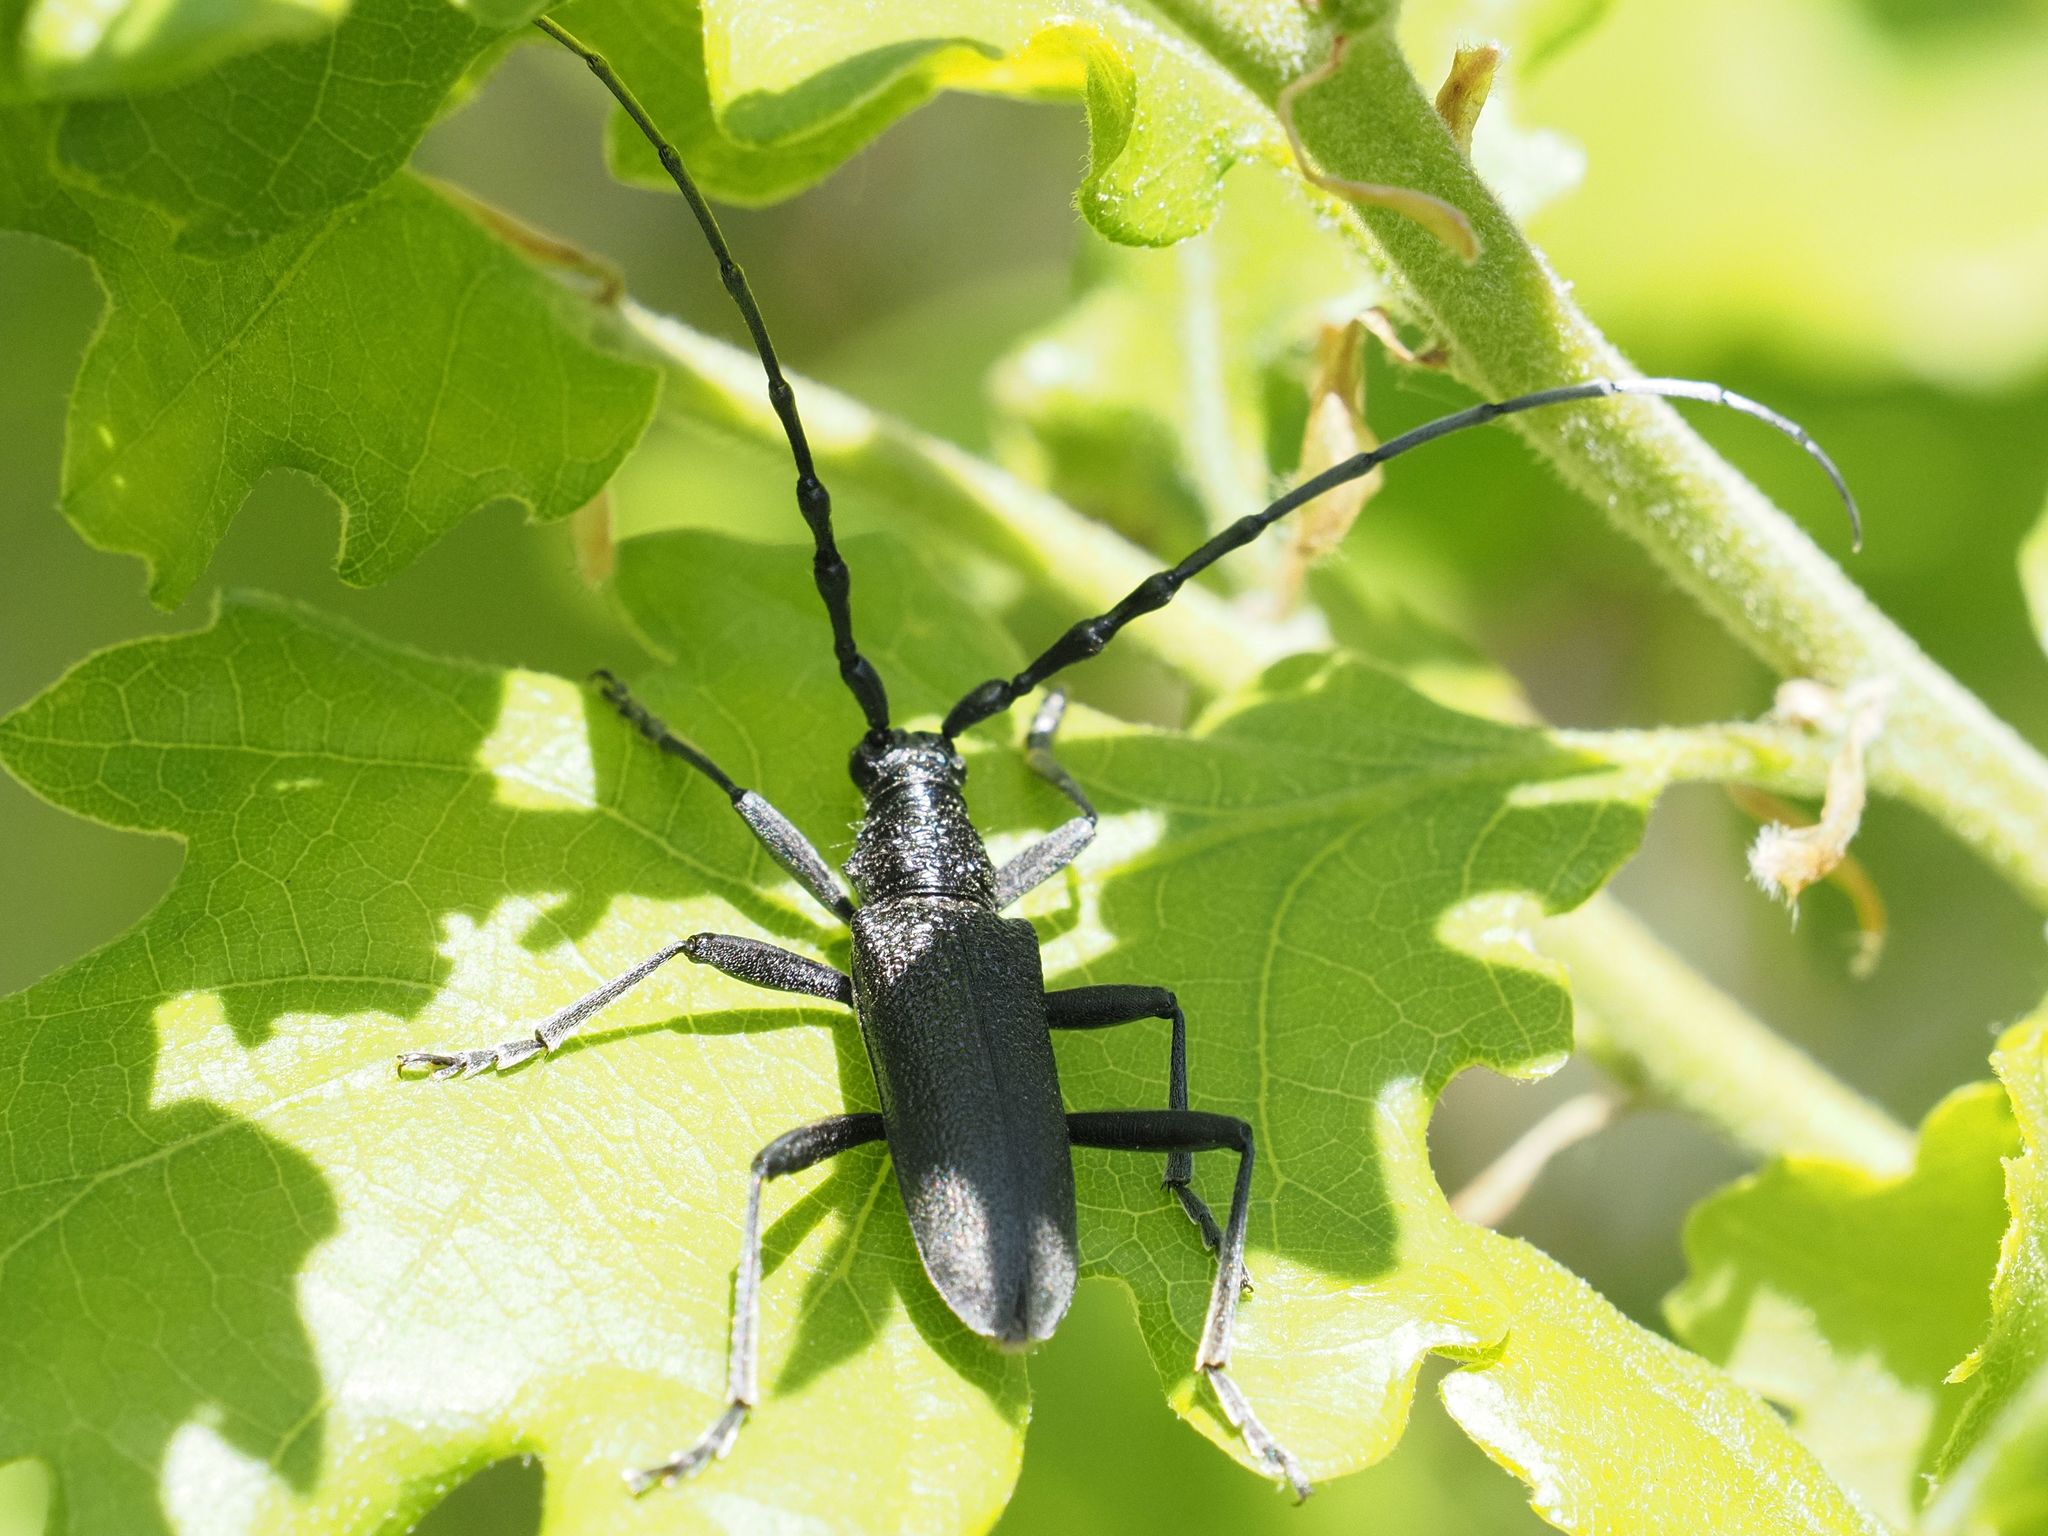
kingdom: Animalia
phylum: Arthropoda
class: Insecta
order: Coleoptera
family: Cerambycidae
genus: Cerambyx
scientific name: Cerambyx scopolii
